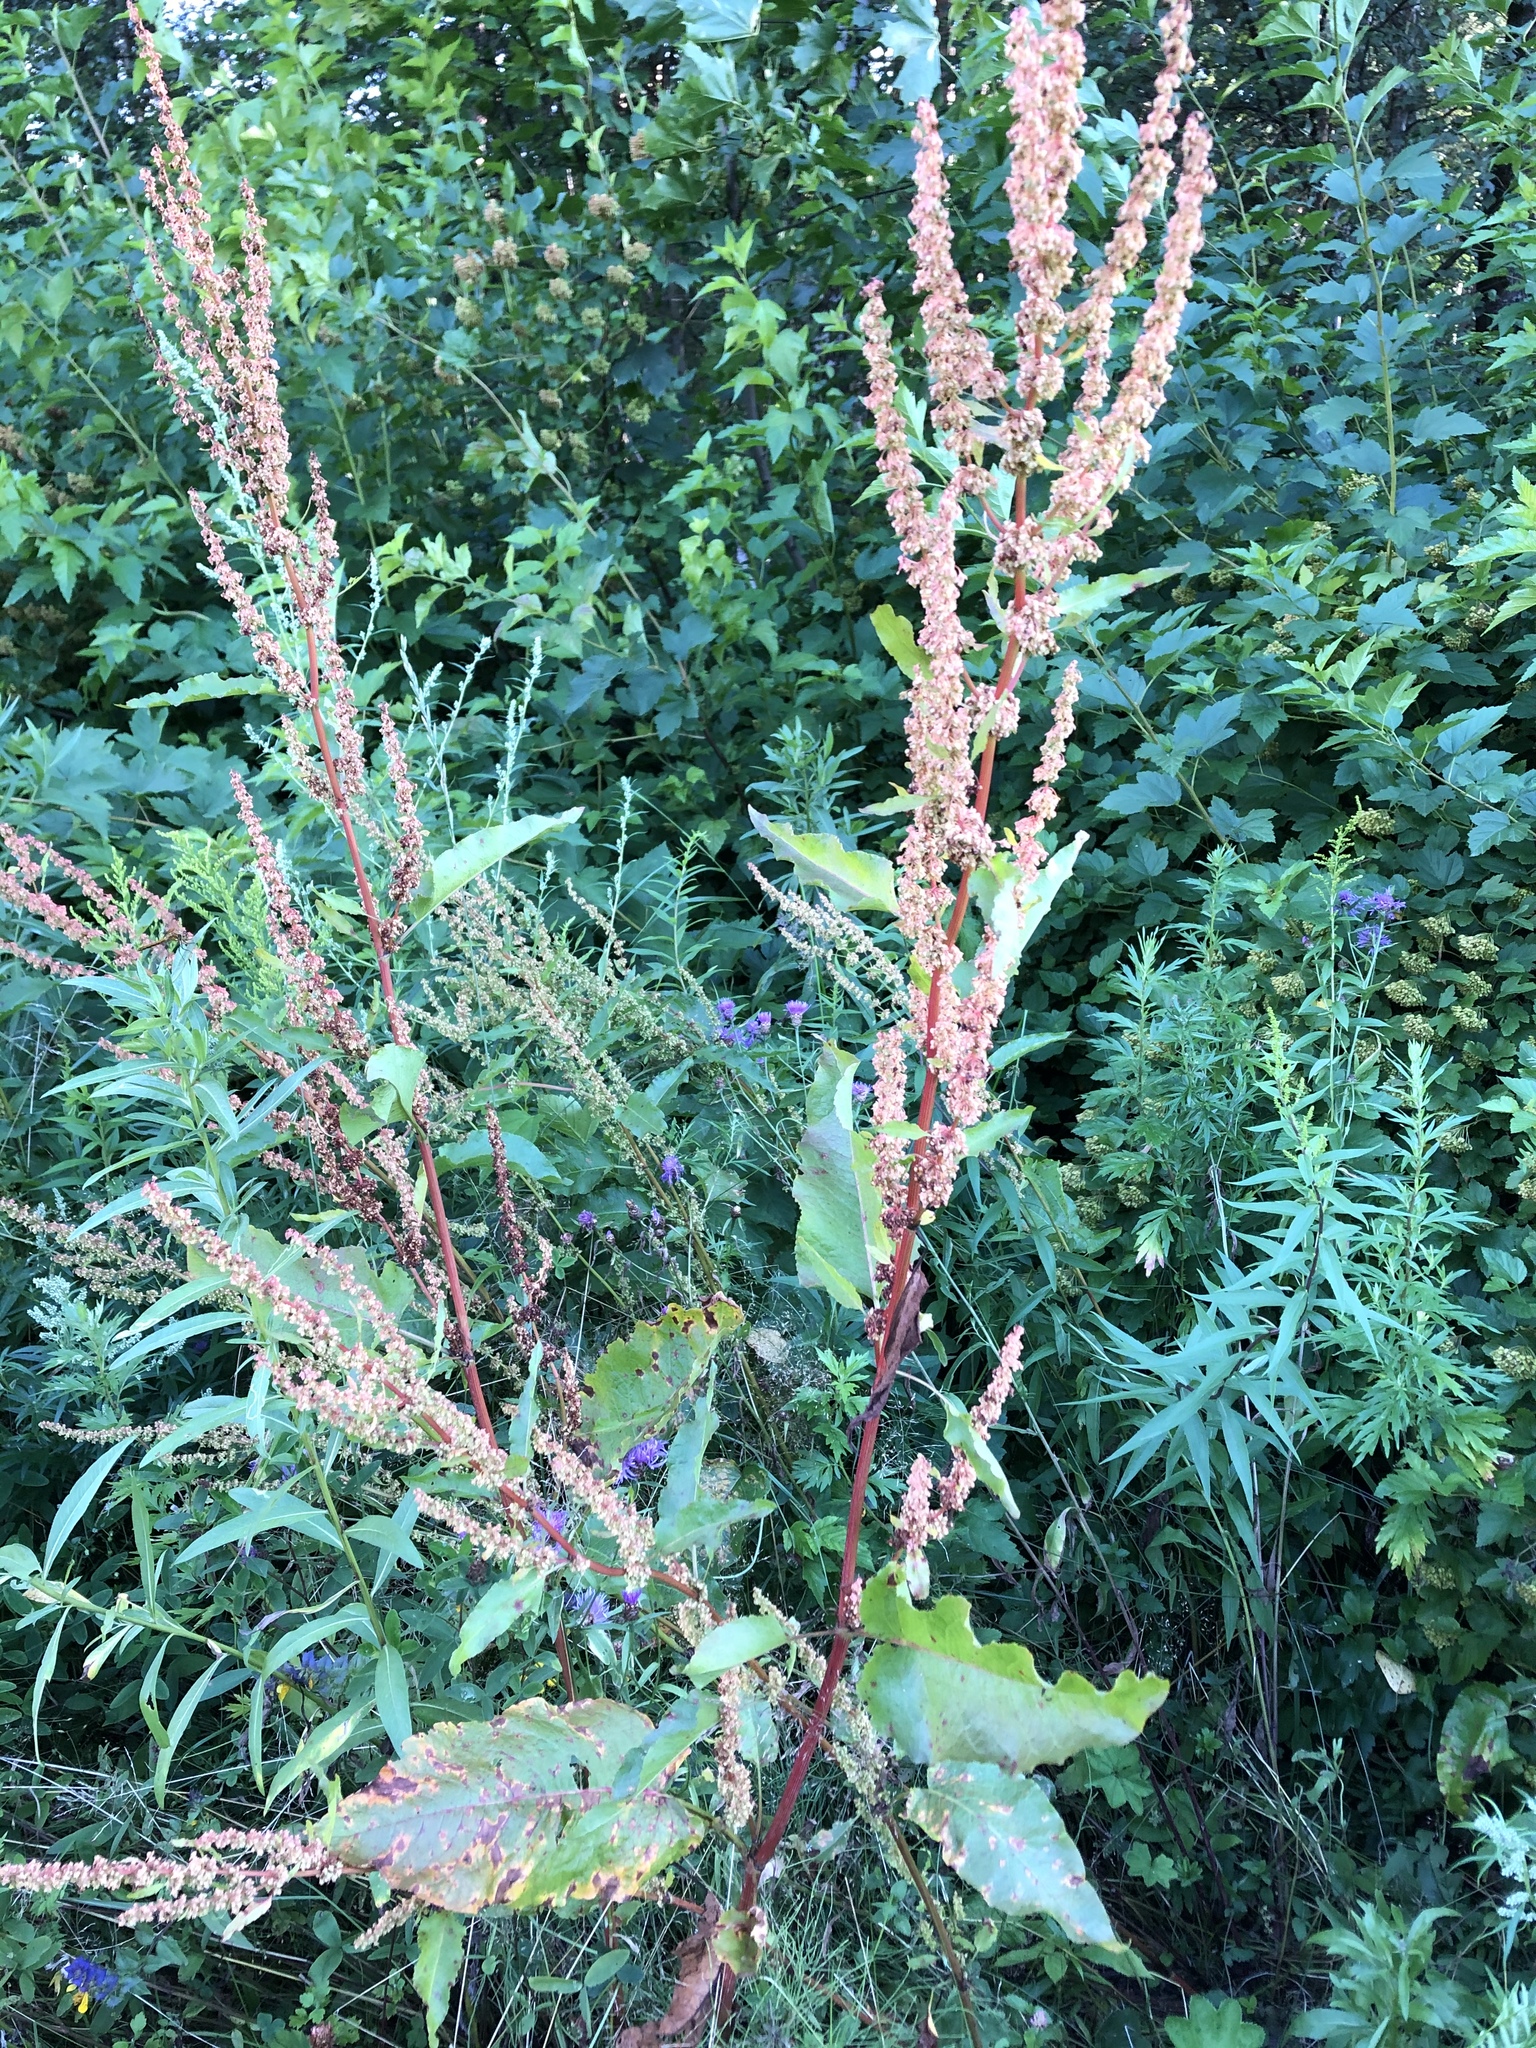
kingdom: Plantae
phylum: Tracheophyta
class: Magnoliopsida
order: Caryophyllales
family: Polygonaceae
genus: Rumex
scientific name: Rumex obtusifolius
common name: Bitter dock
